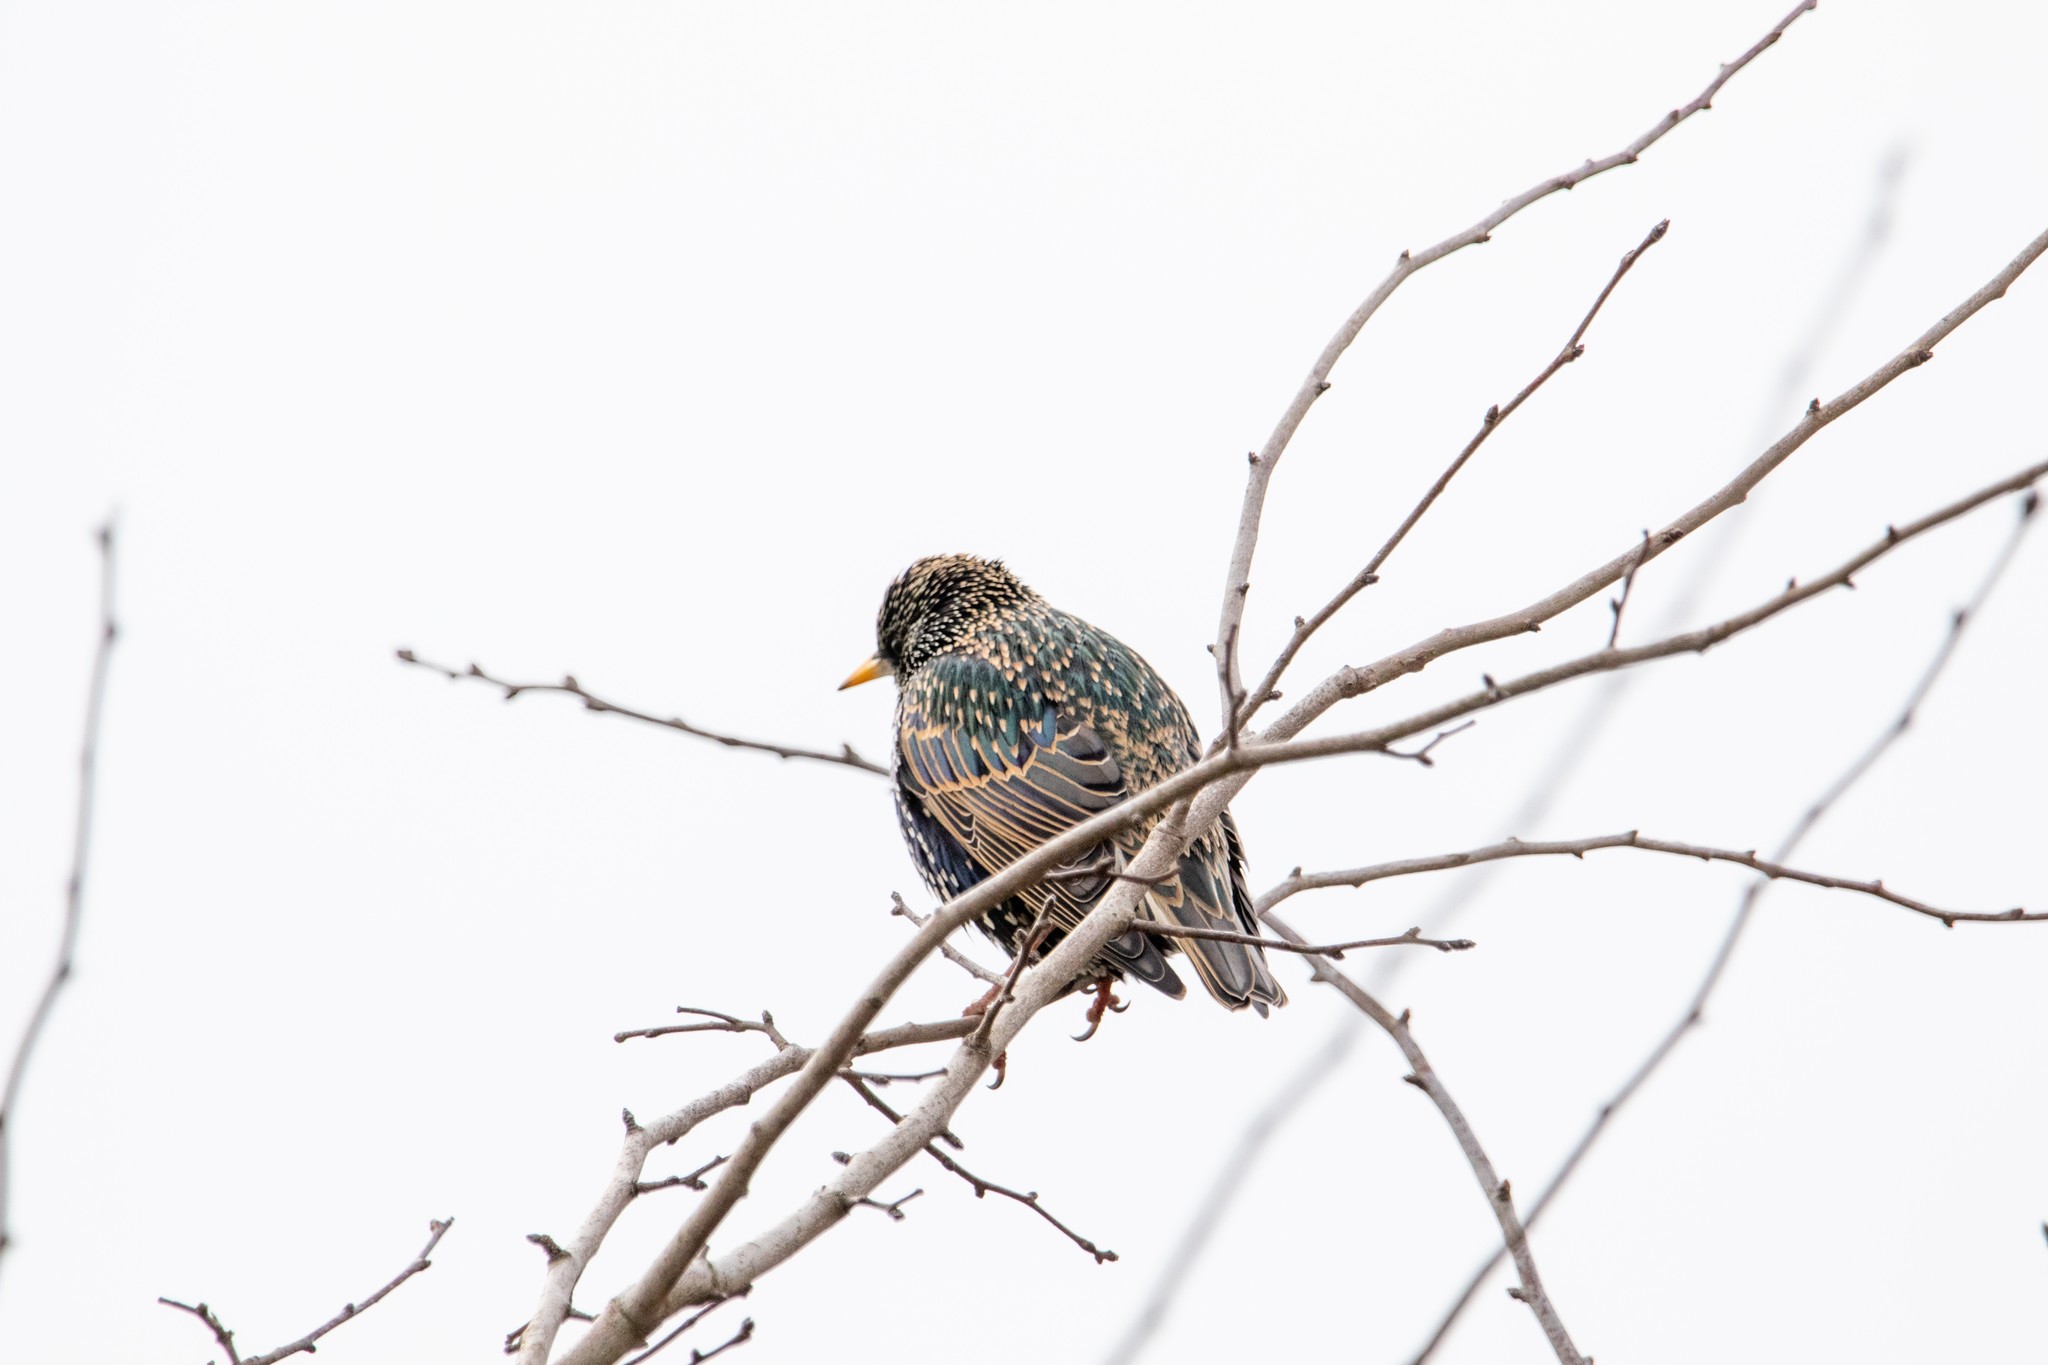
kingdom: Animalia
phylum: Chordata
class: Aves
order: Passeriformes
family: Sturnidae
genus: Sturnus
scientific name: Sturnus vulgaris
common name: Common starling
